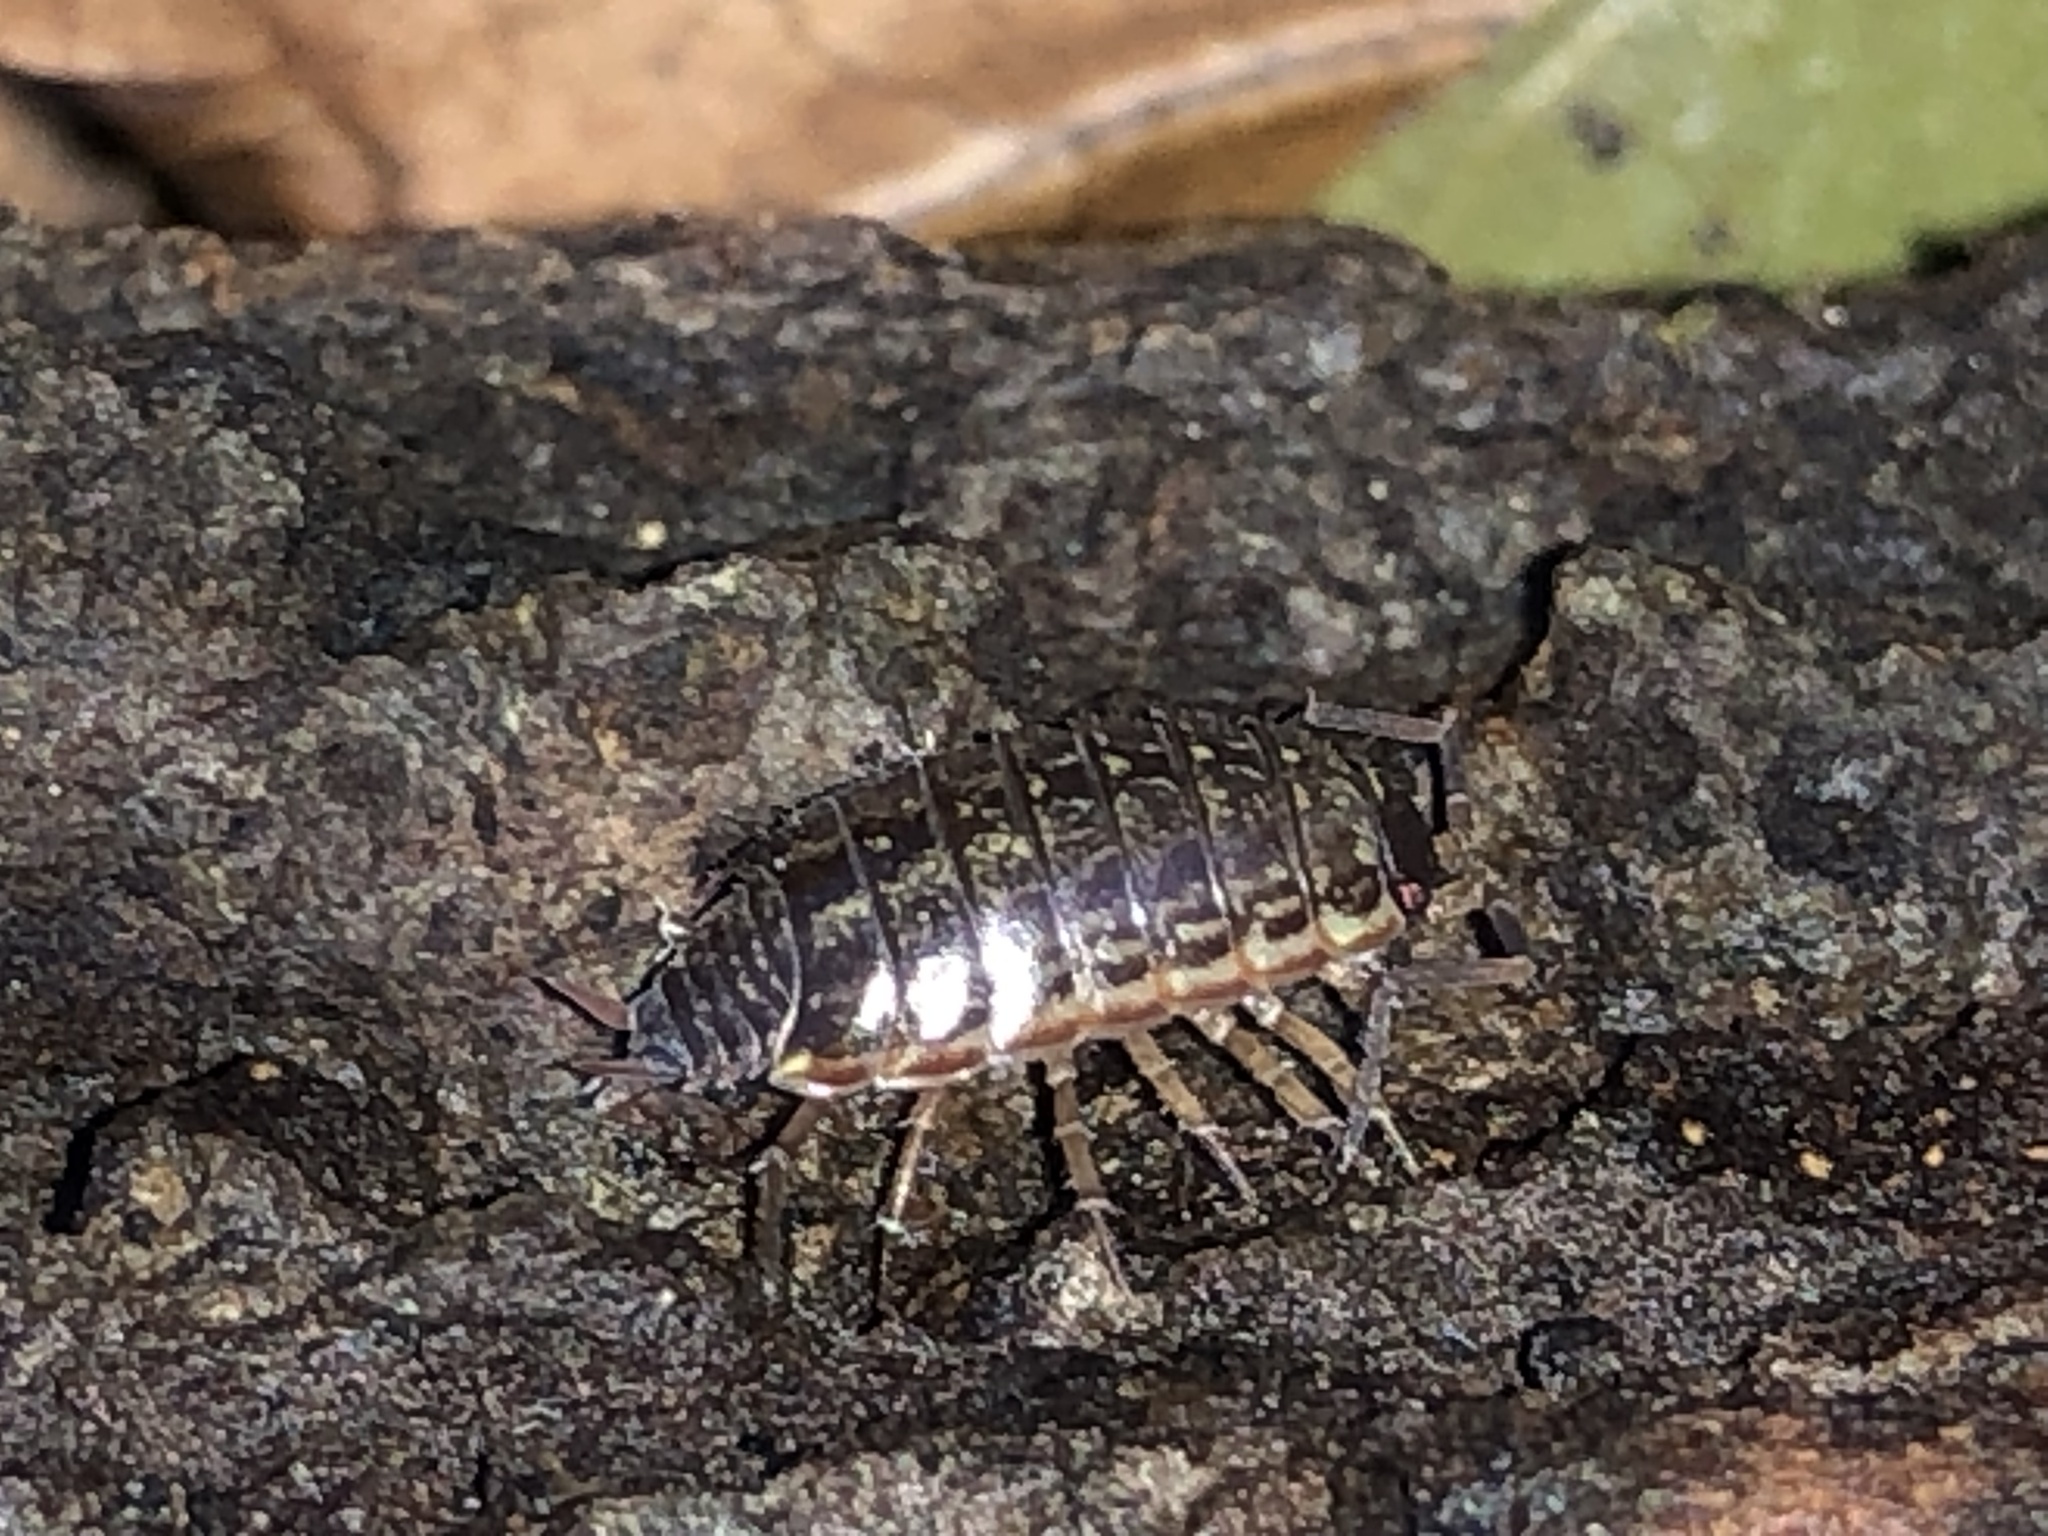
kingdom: Animalia
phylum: Arthropoda
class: Malacostraca
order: Isopoda
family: Philosciidae
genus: Philoscia
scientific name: Philoscia muscorum
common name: Common striped woodlouse
